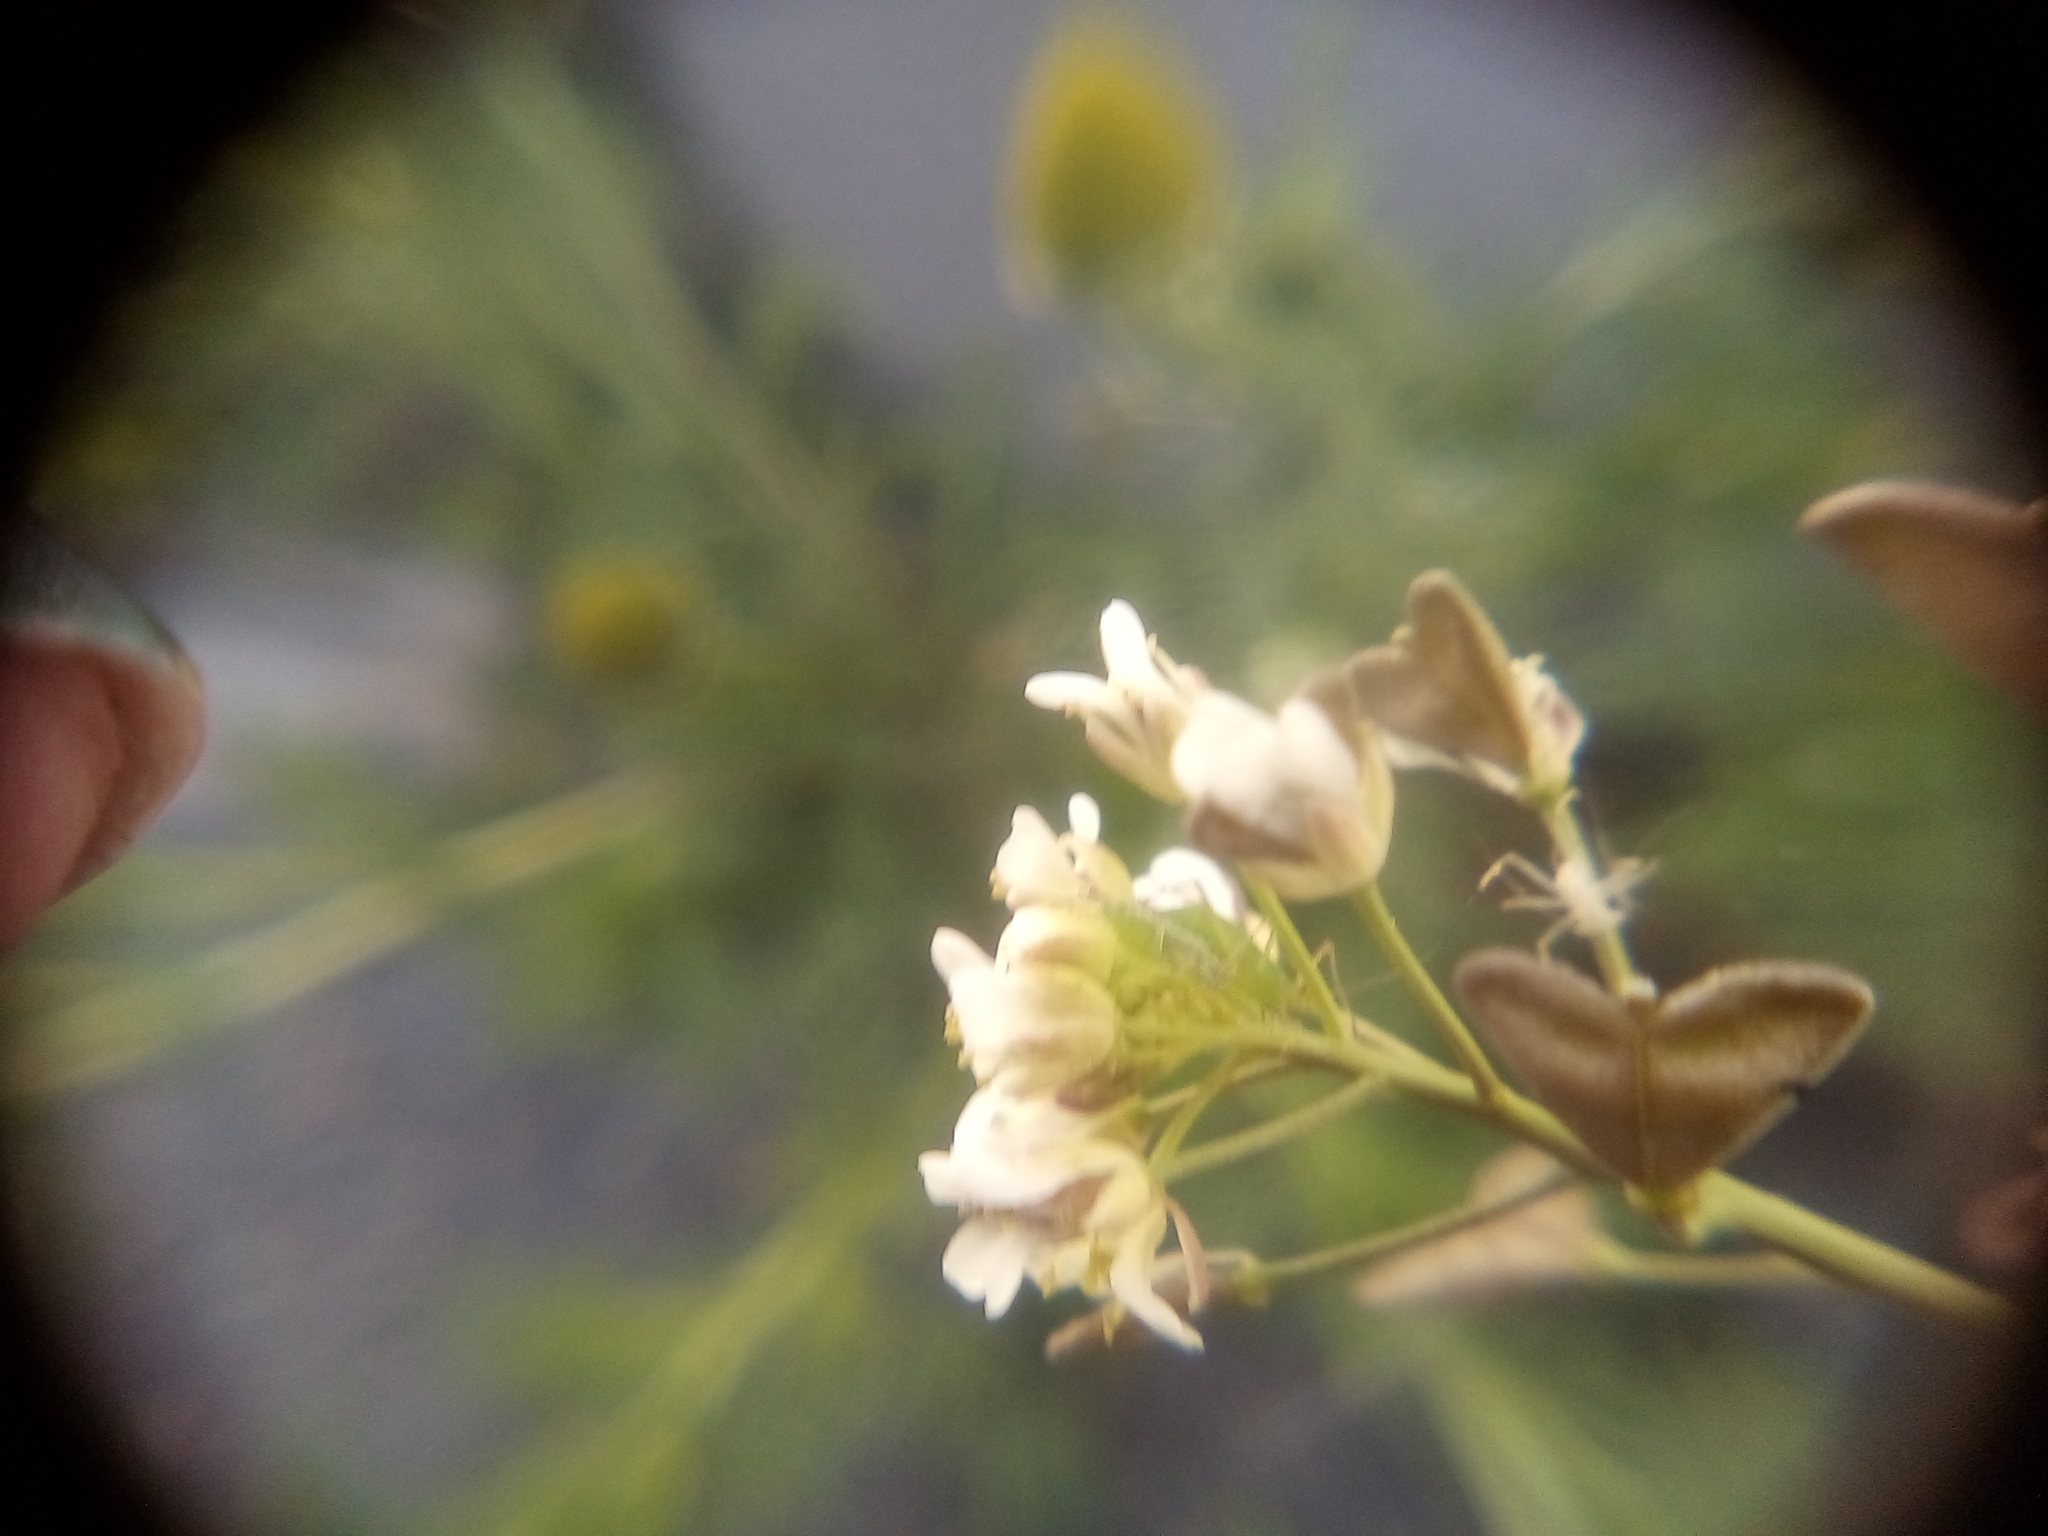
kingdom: Plantae
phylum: Tracheophyta
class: Magnoliopsida
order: Brassicales
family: Brassicaceae
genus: Capsella
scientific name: Capsella bursa-pastoris
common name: Shepherd's purse
